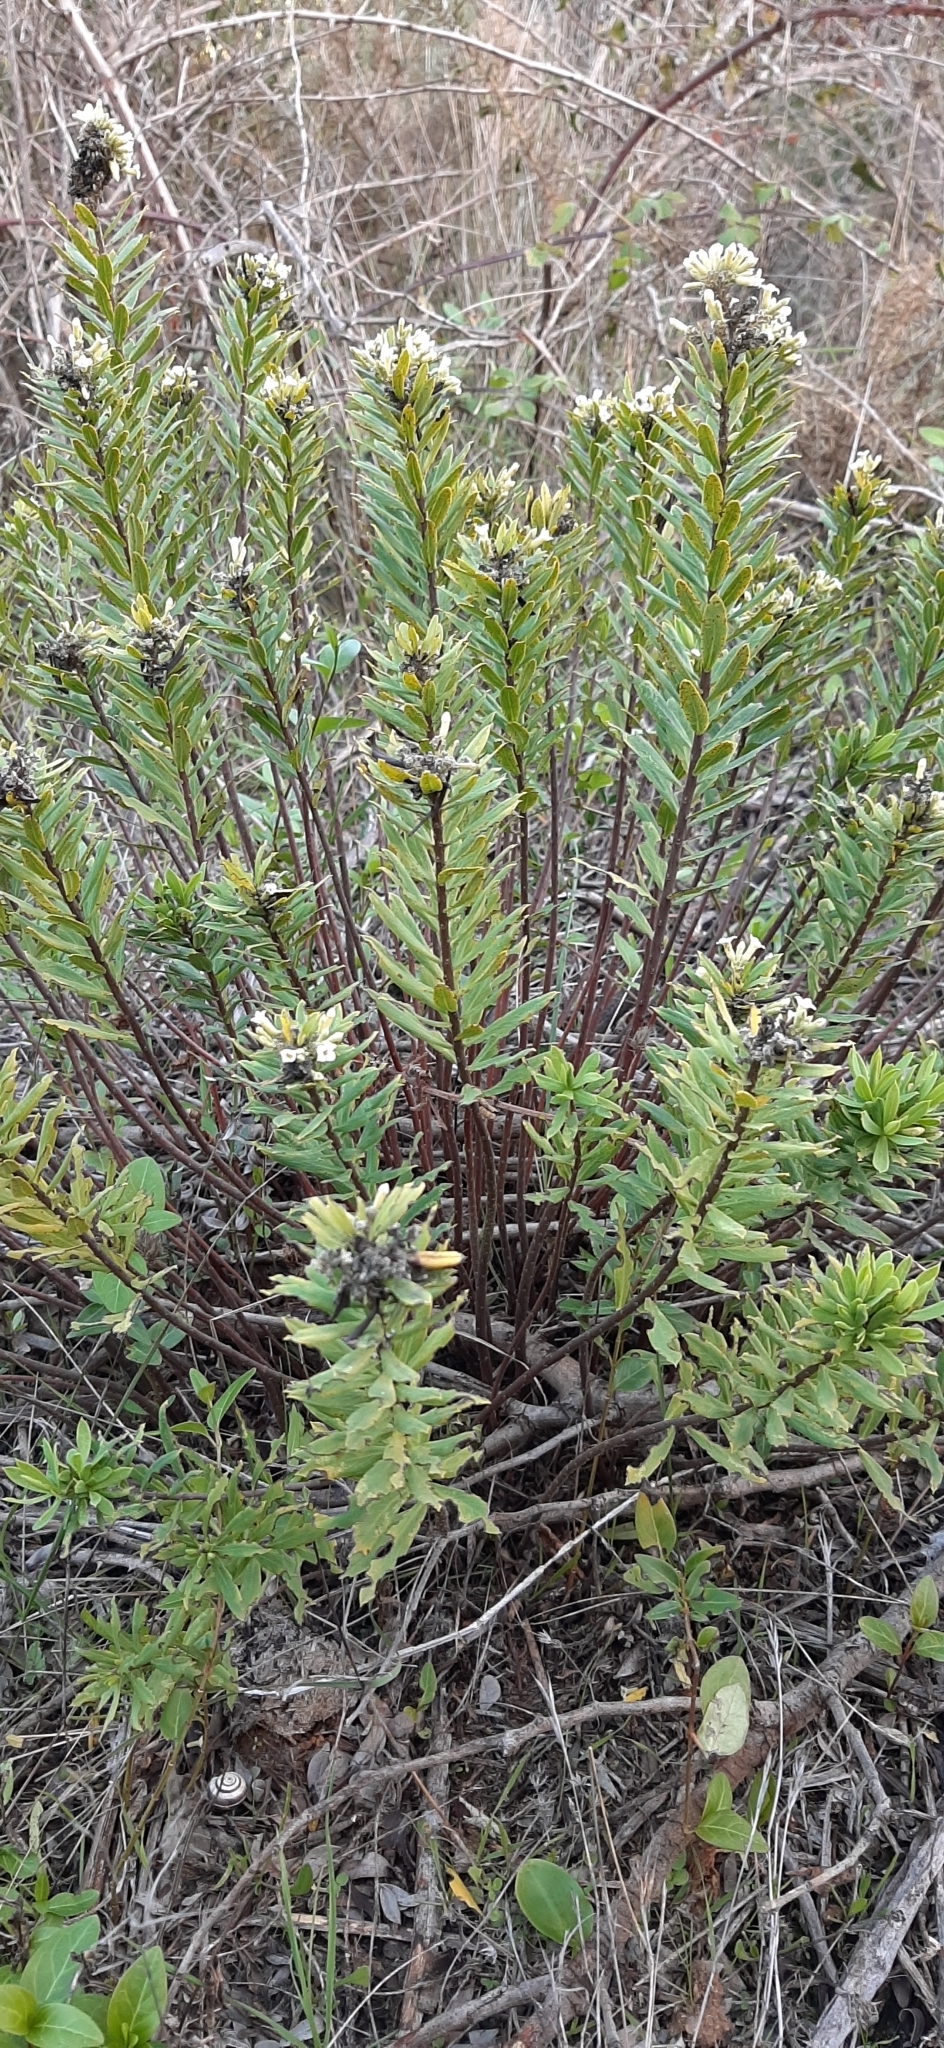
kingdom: Plantae
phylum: Tracheophyta
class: Magnoliopsida
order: Malvales
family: Thymelaeaceae
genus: Daphne
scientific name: Daphne gnidium
